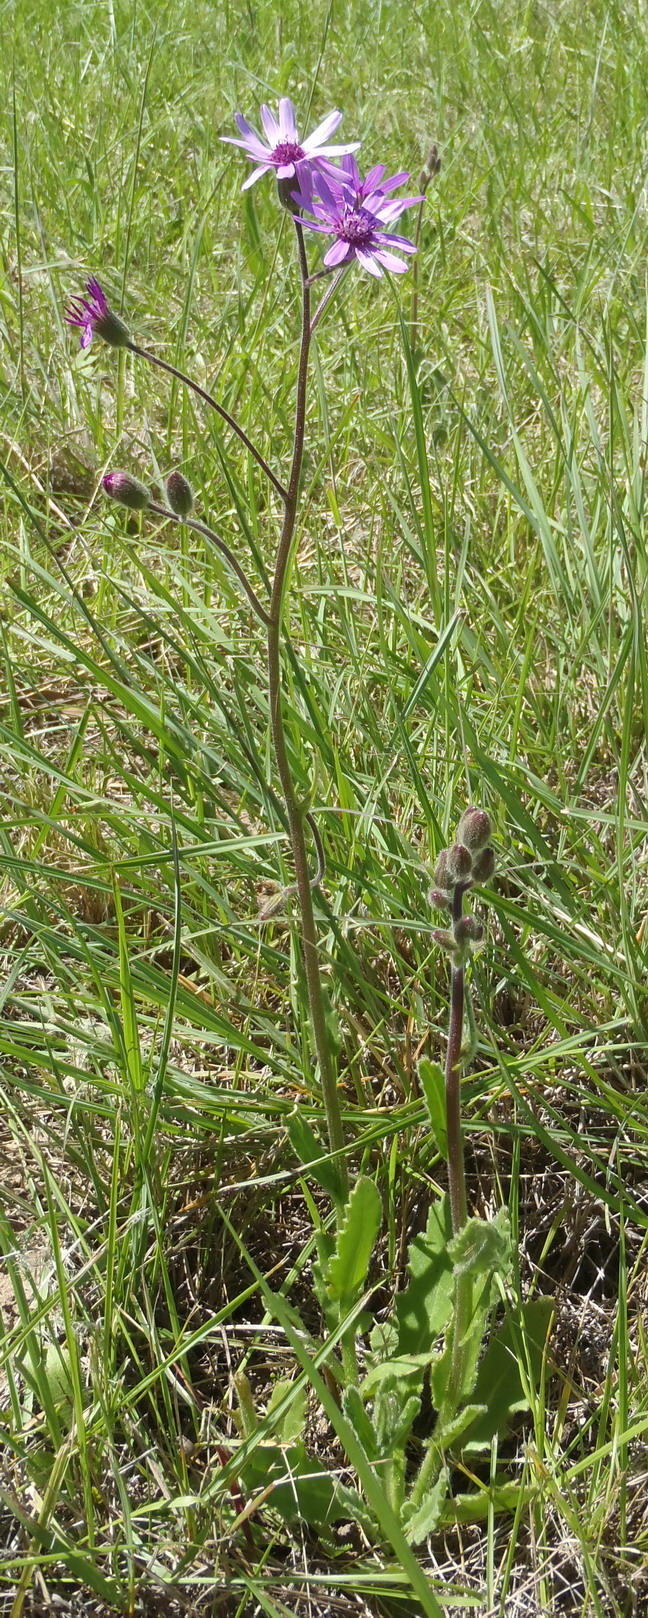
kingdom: Plantae
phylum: Tracheophyta
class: Magnoliopsida
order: Asterales
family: Asteraceae
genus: Senecio
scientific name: Senecio macrocephalus
